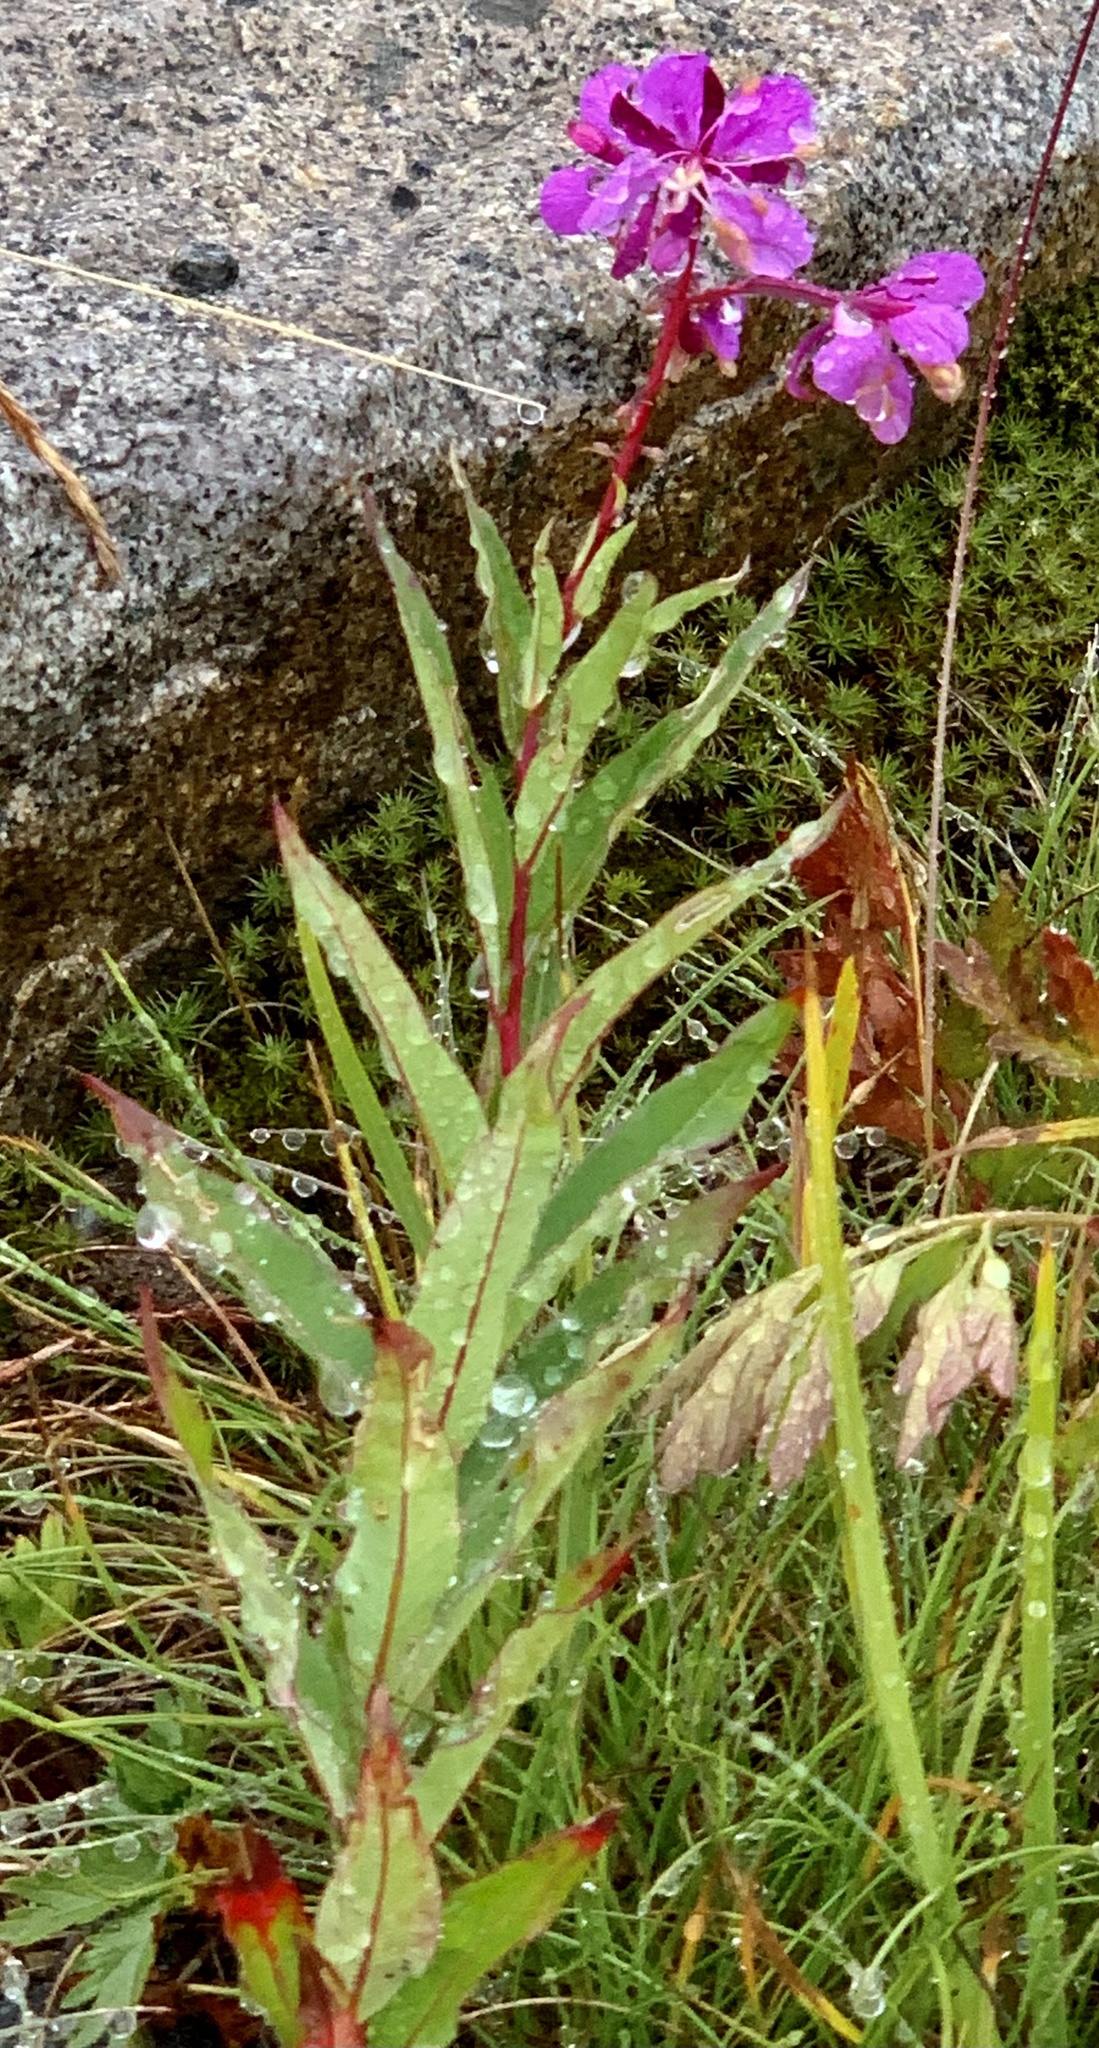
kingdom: Plantae
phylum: Tracheophyta
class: Magnoliopsida
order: Myrtales
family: Onagraceae
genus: Chamaenerion
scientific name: Chamaenerion angustifolium
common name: Fireweed
